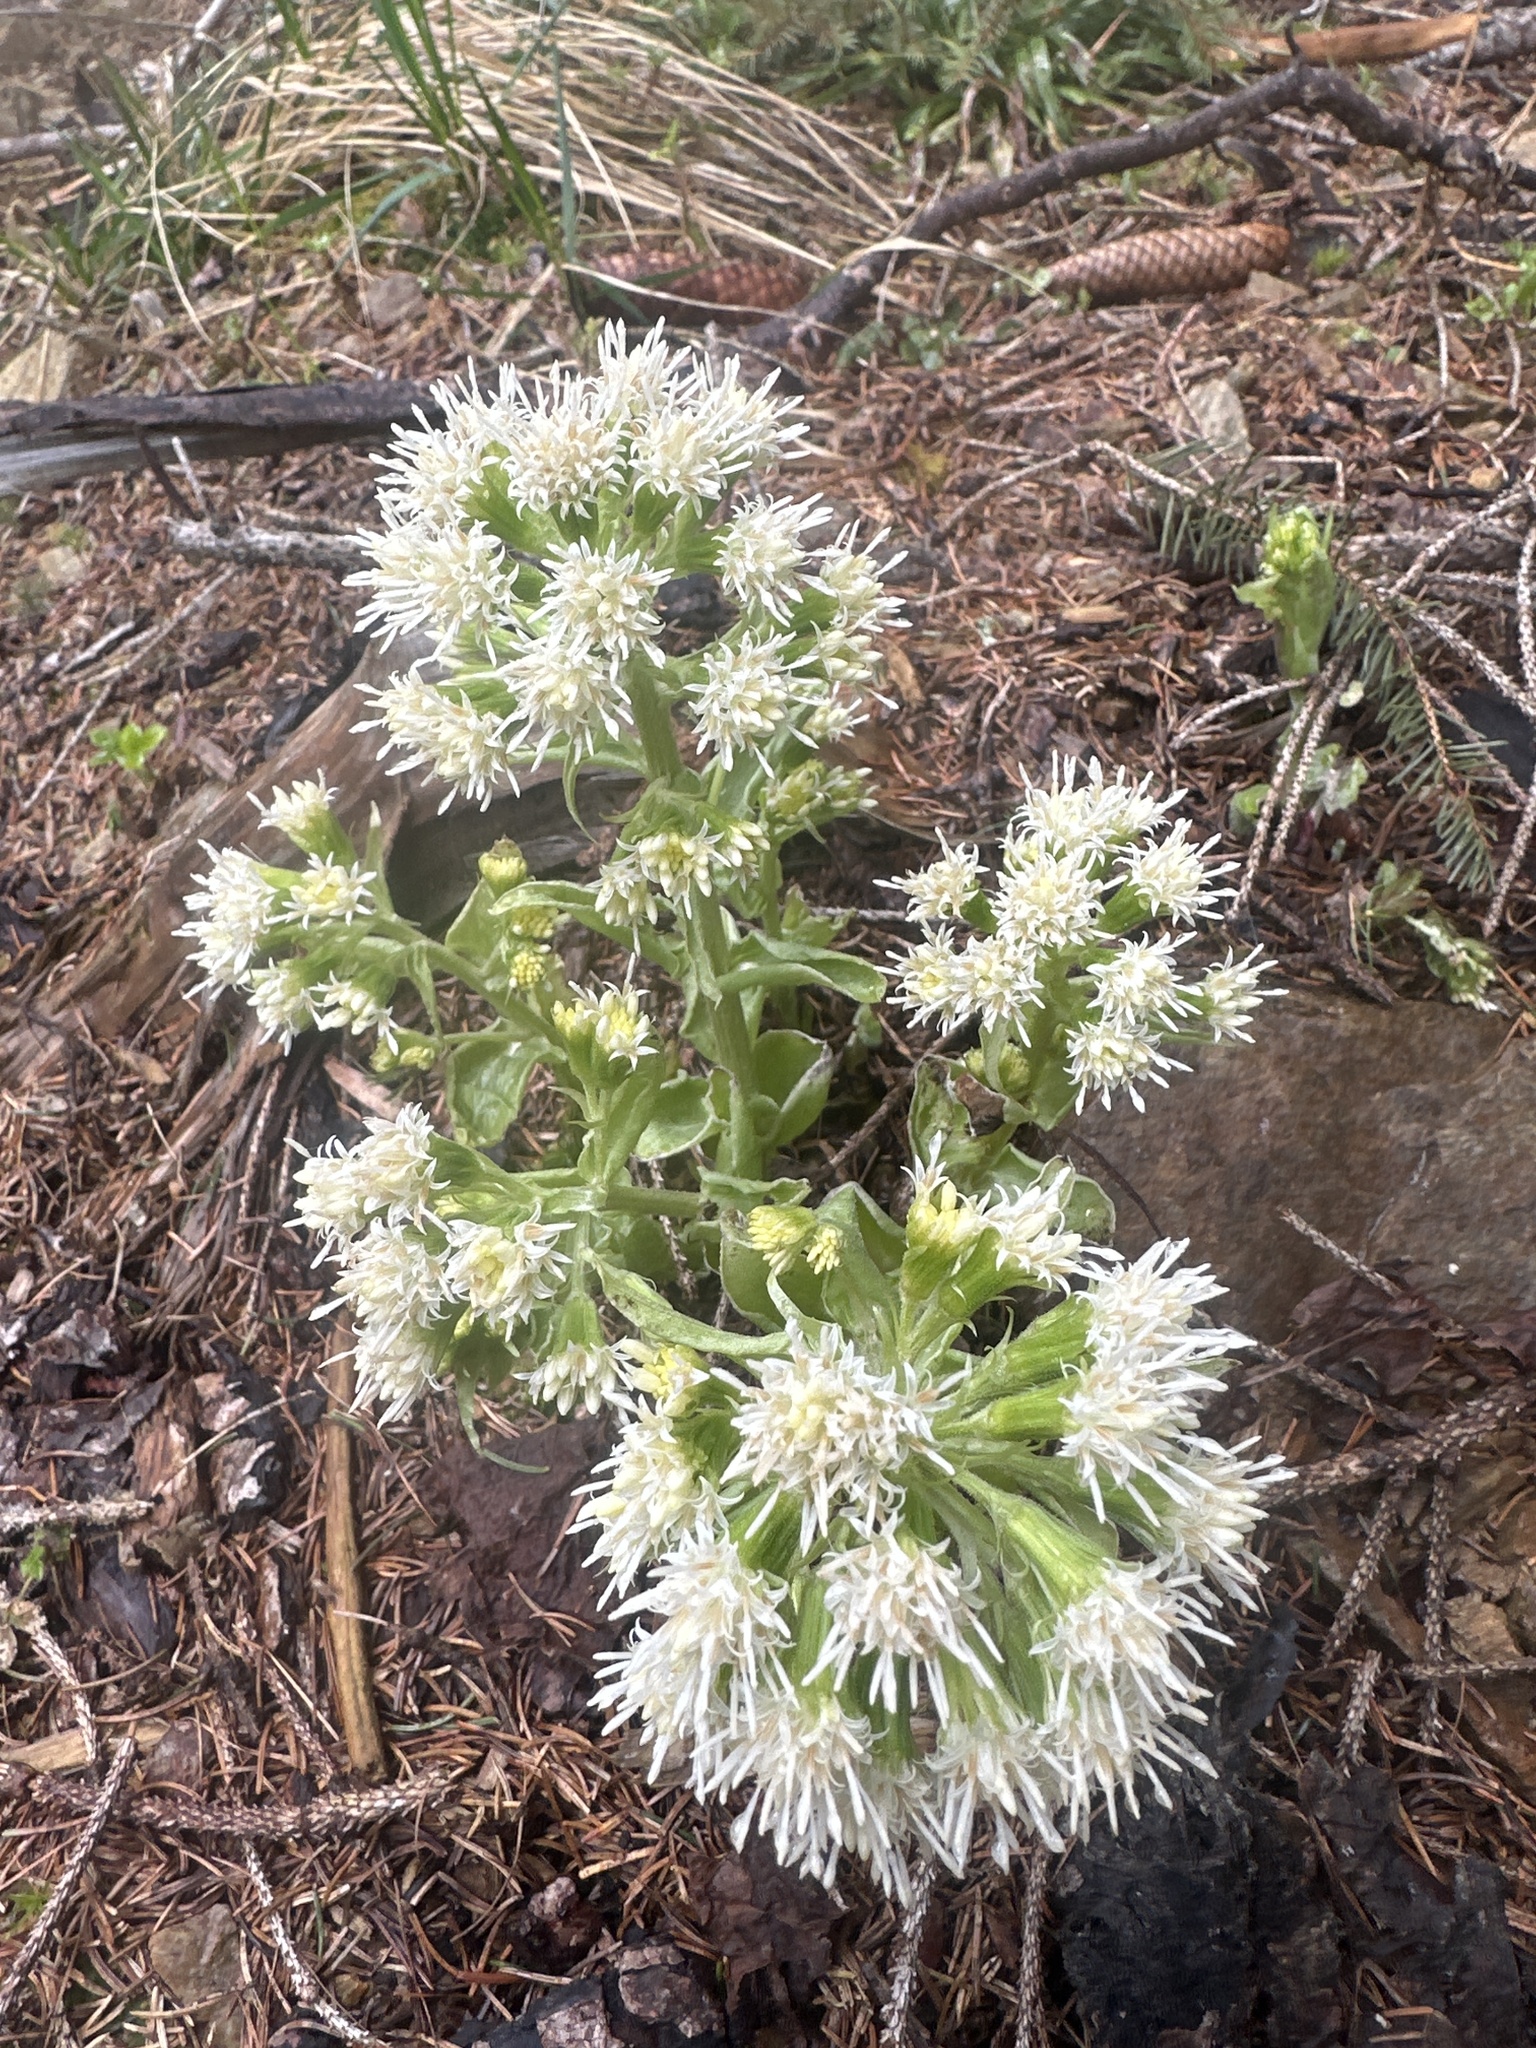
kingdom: Plantae
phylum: Tracheophyta
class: Magnoliopsida
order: Asterales
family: Asteraceae
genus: Petasites
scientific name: Petasites albus
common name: White butterbur
